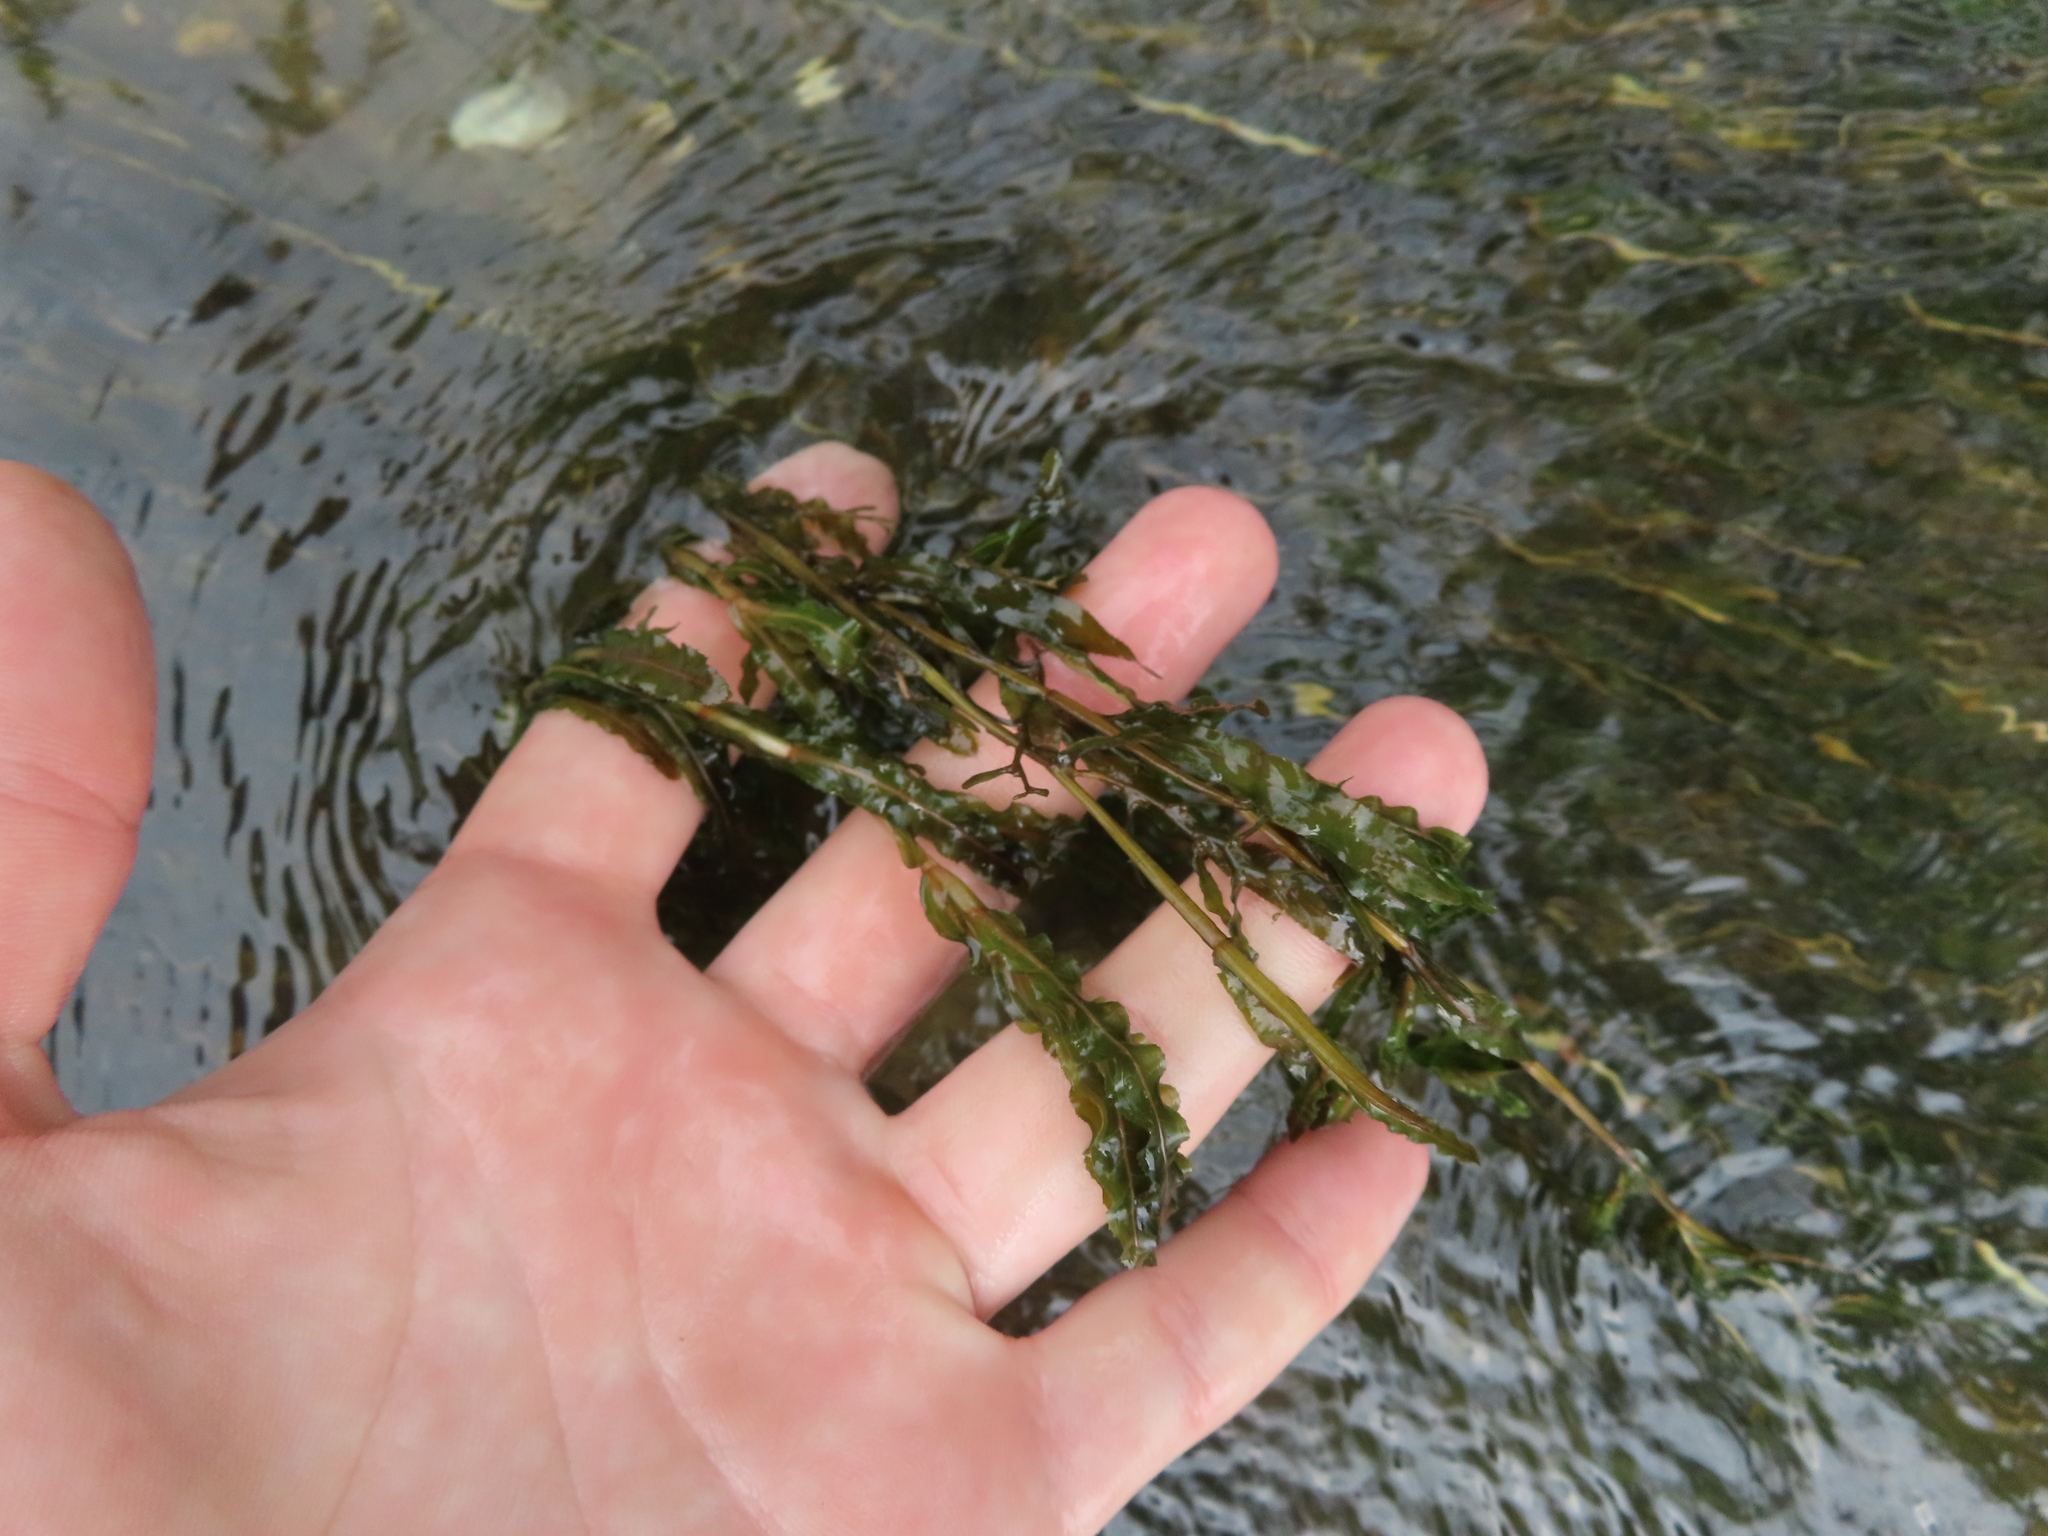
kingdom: Plantae
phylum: Tracheophyta
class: Liliopsida
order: Alismatales
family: Potamogetonaceae
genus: Potamogeton
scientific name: Potamogeton crispus
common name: Curled pondweed
